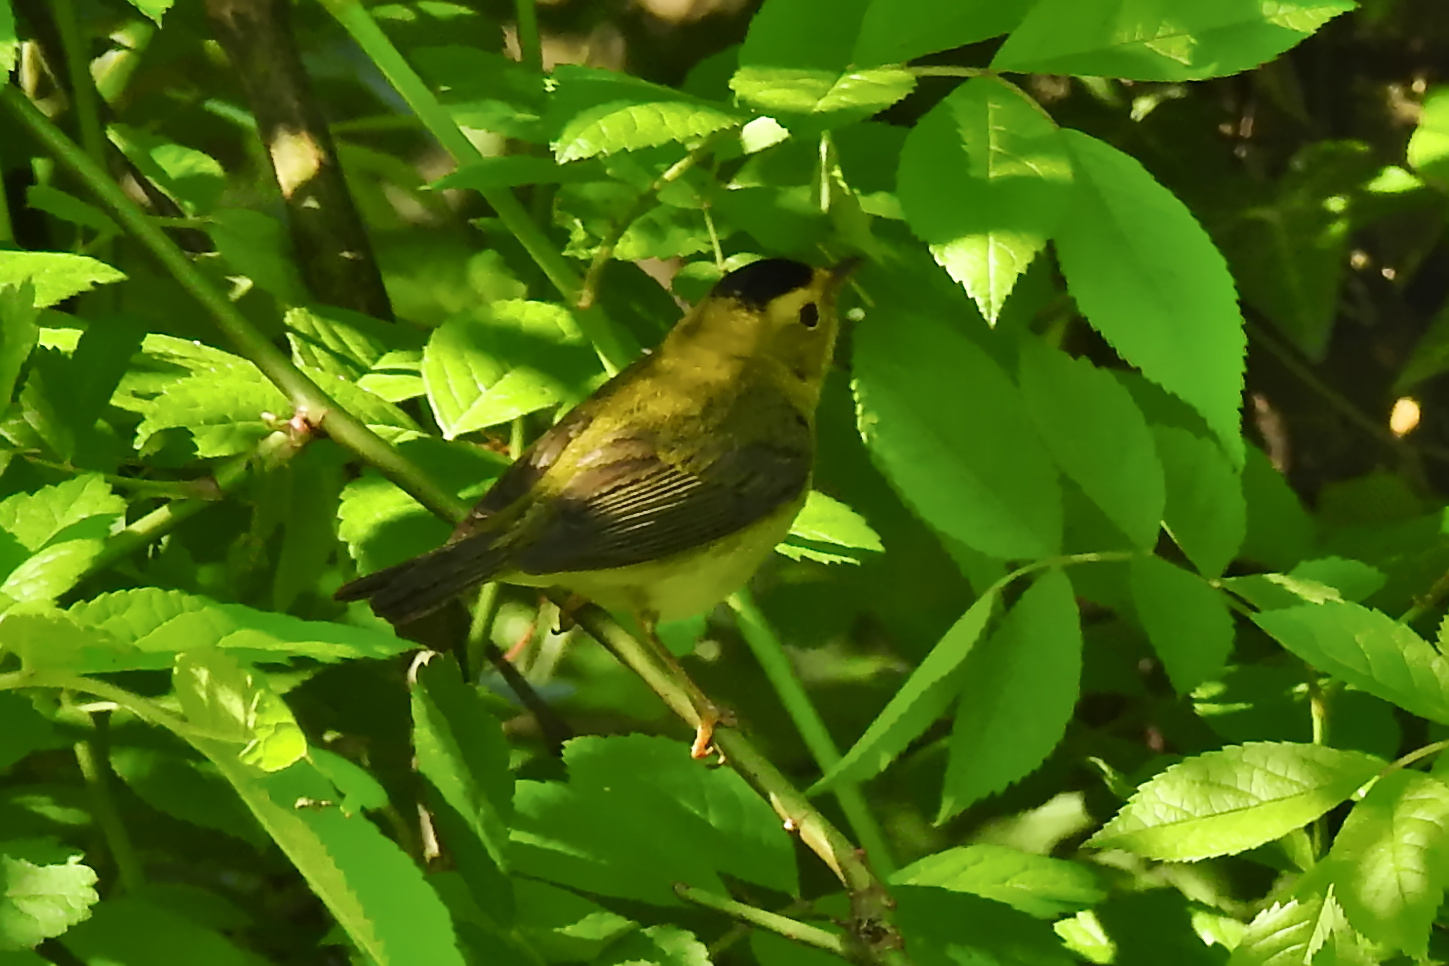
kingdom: Animalia
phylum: Chordata
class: Aves
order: Passeriformes
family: Parulidae
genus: Cardellina
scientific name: Cardellina pusilla
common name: Wilson's warbler
